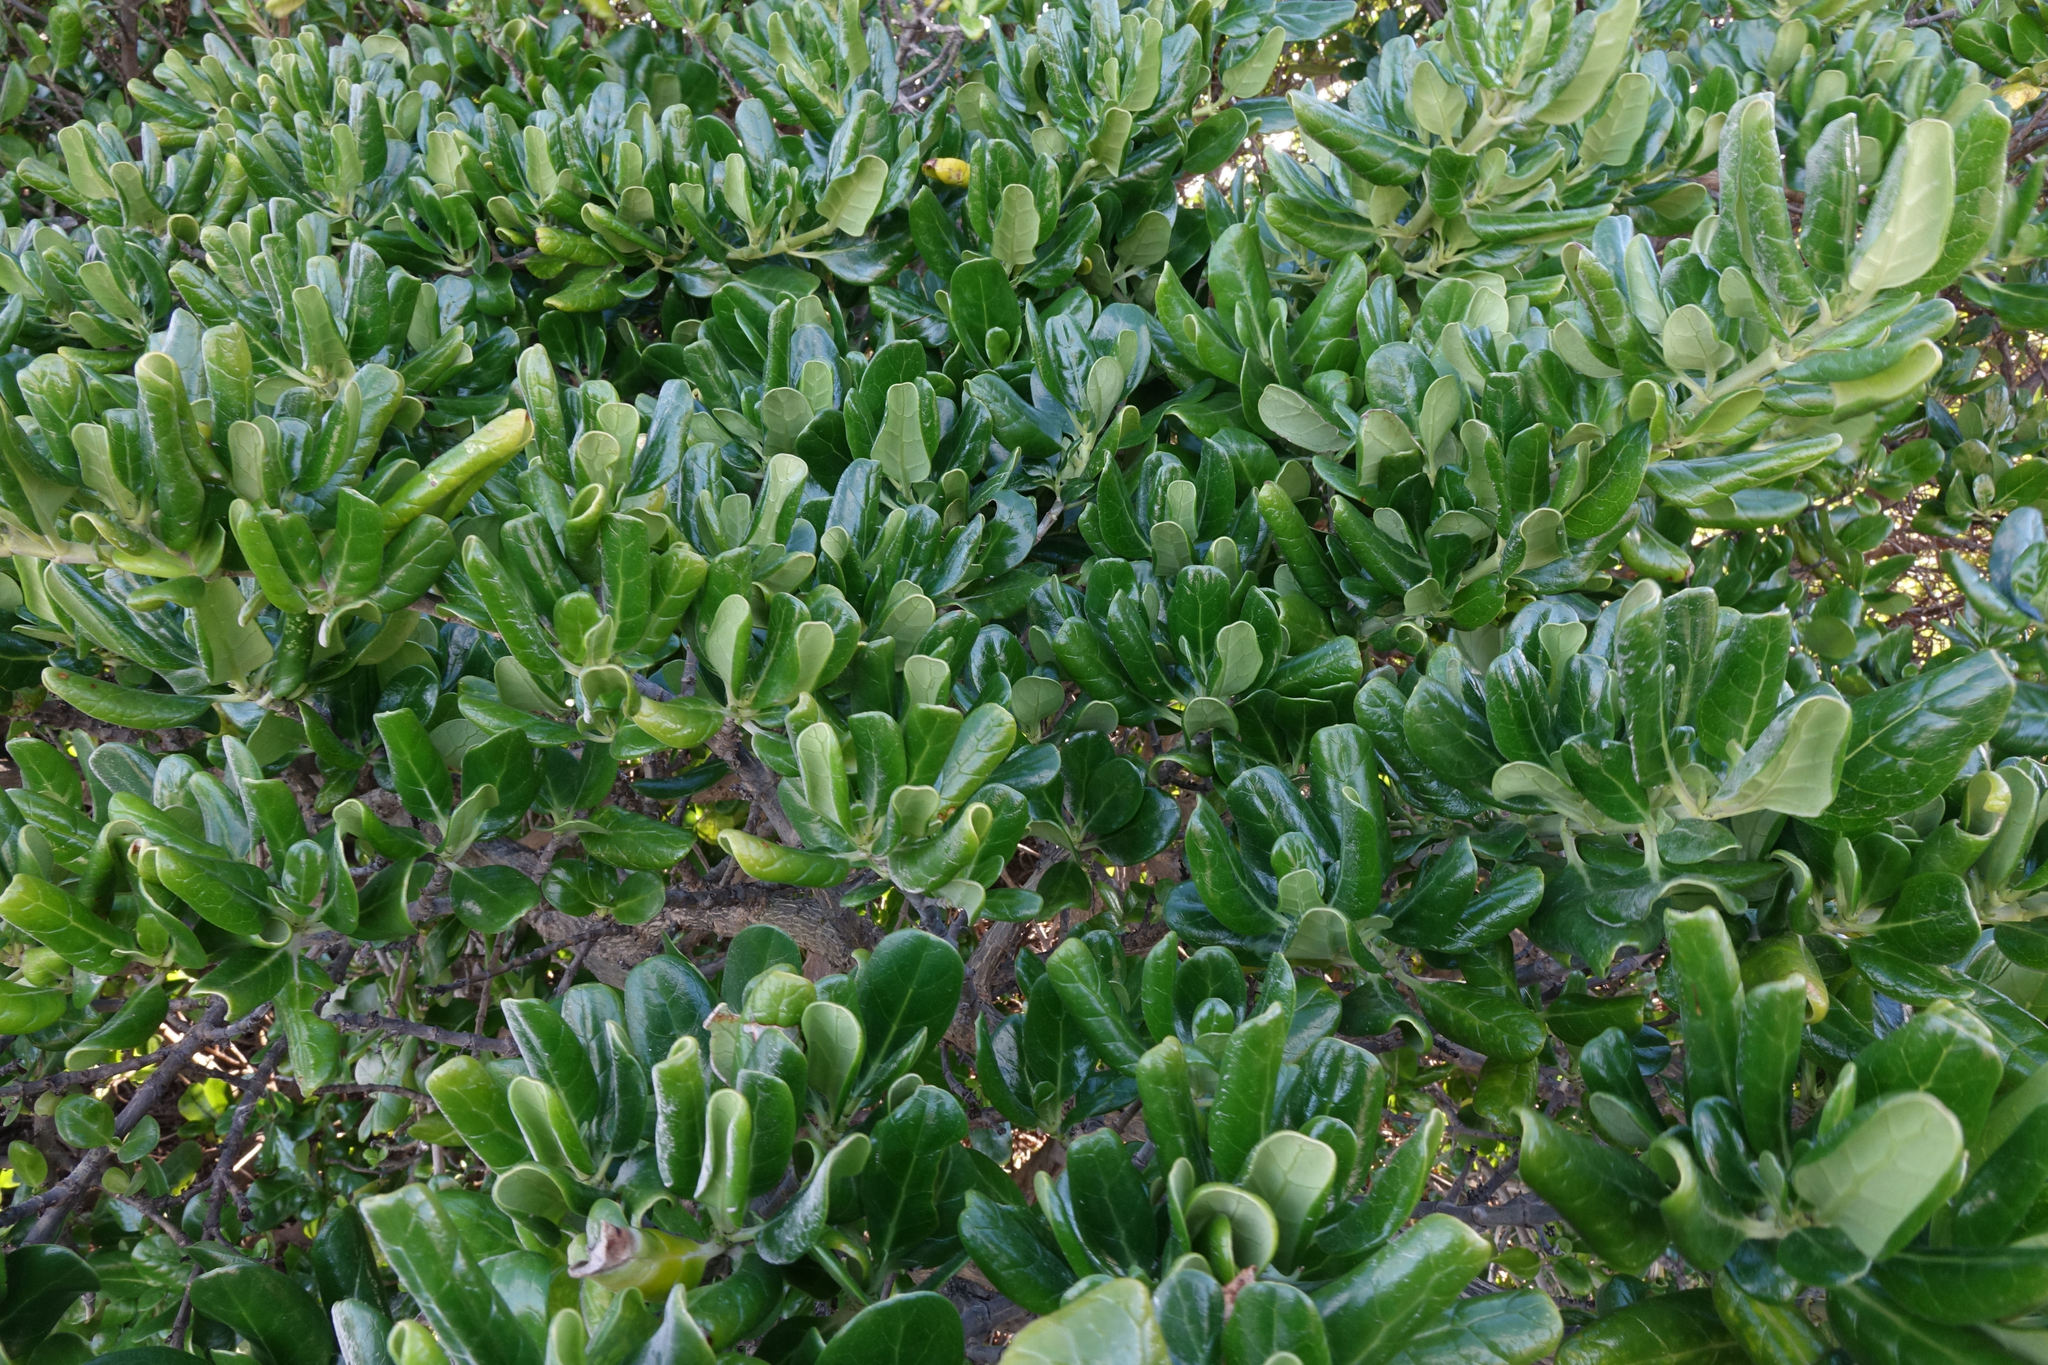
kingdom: Plantae
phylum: Tracheophyta
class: Magnoliopsida
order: Gentianales
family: Rubiaceae
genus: Coprosma
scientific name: Coprosma repens
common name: Tree bedstraw
